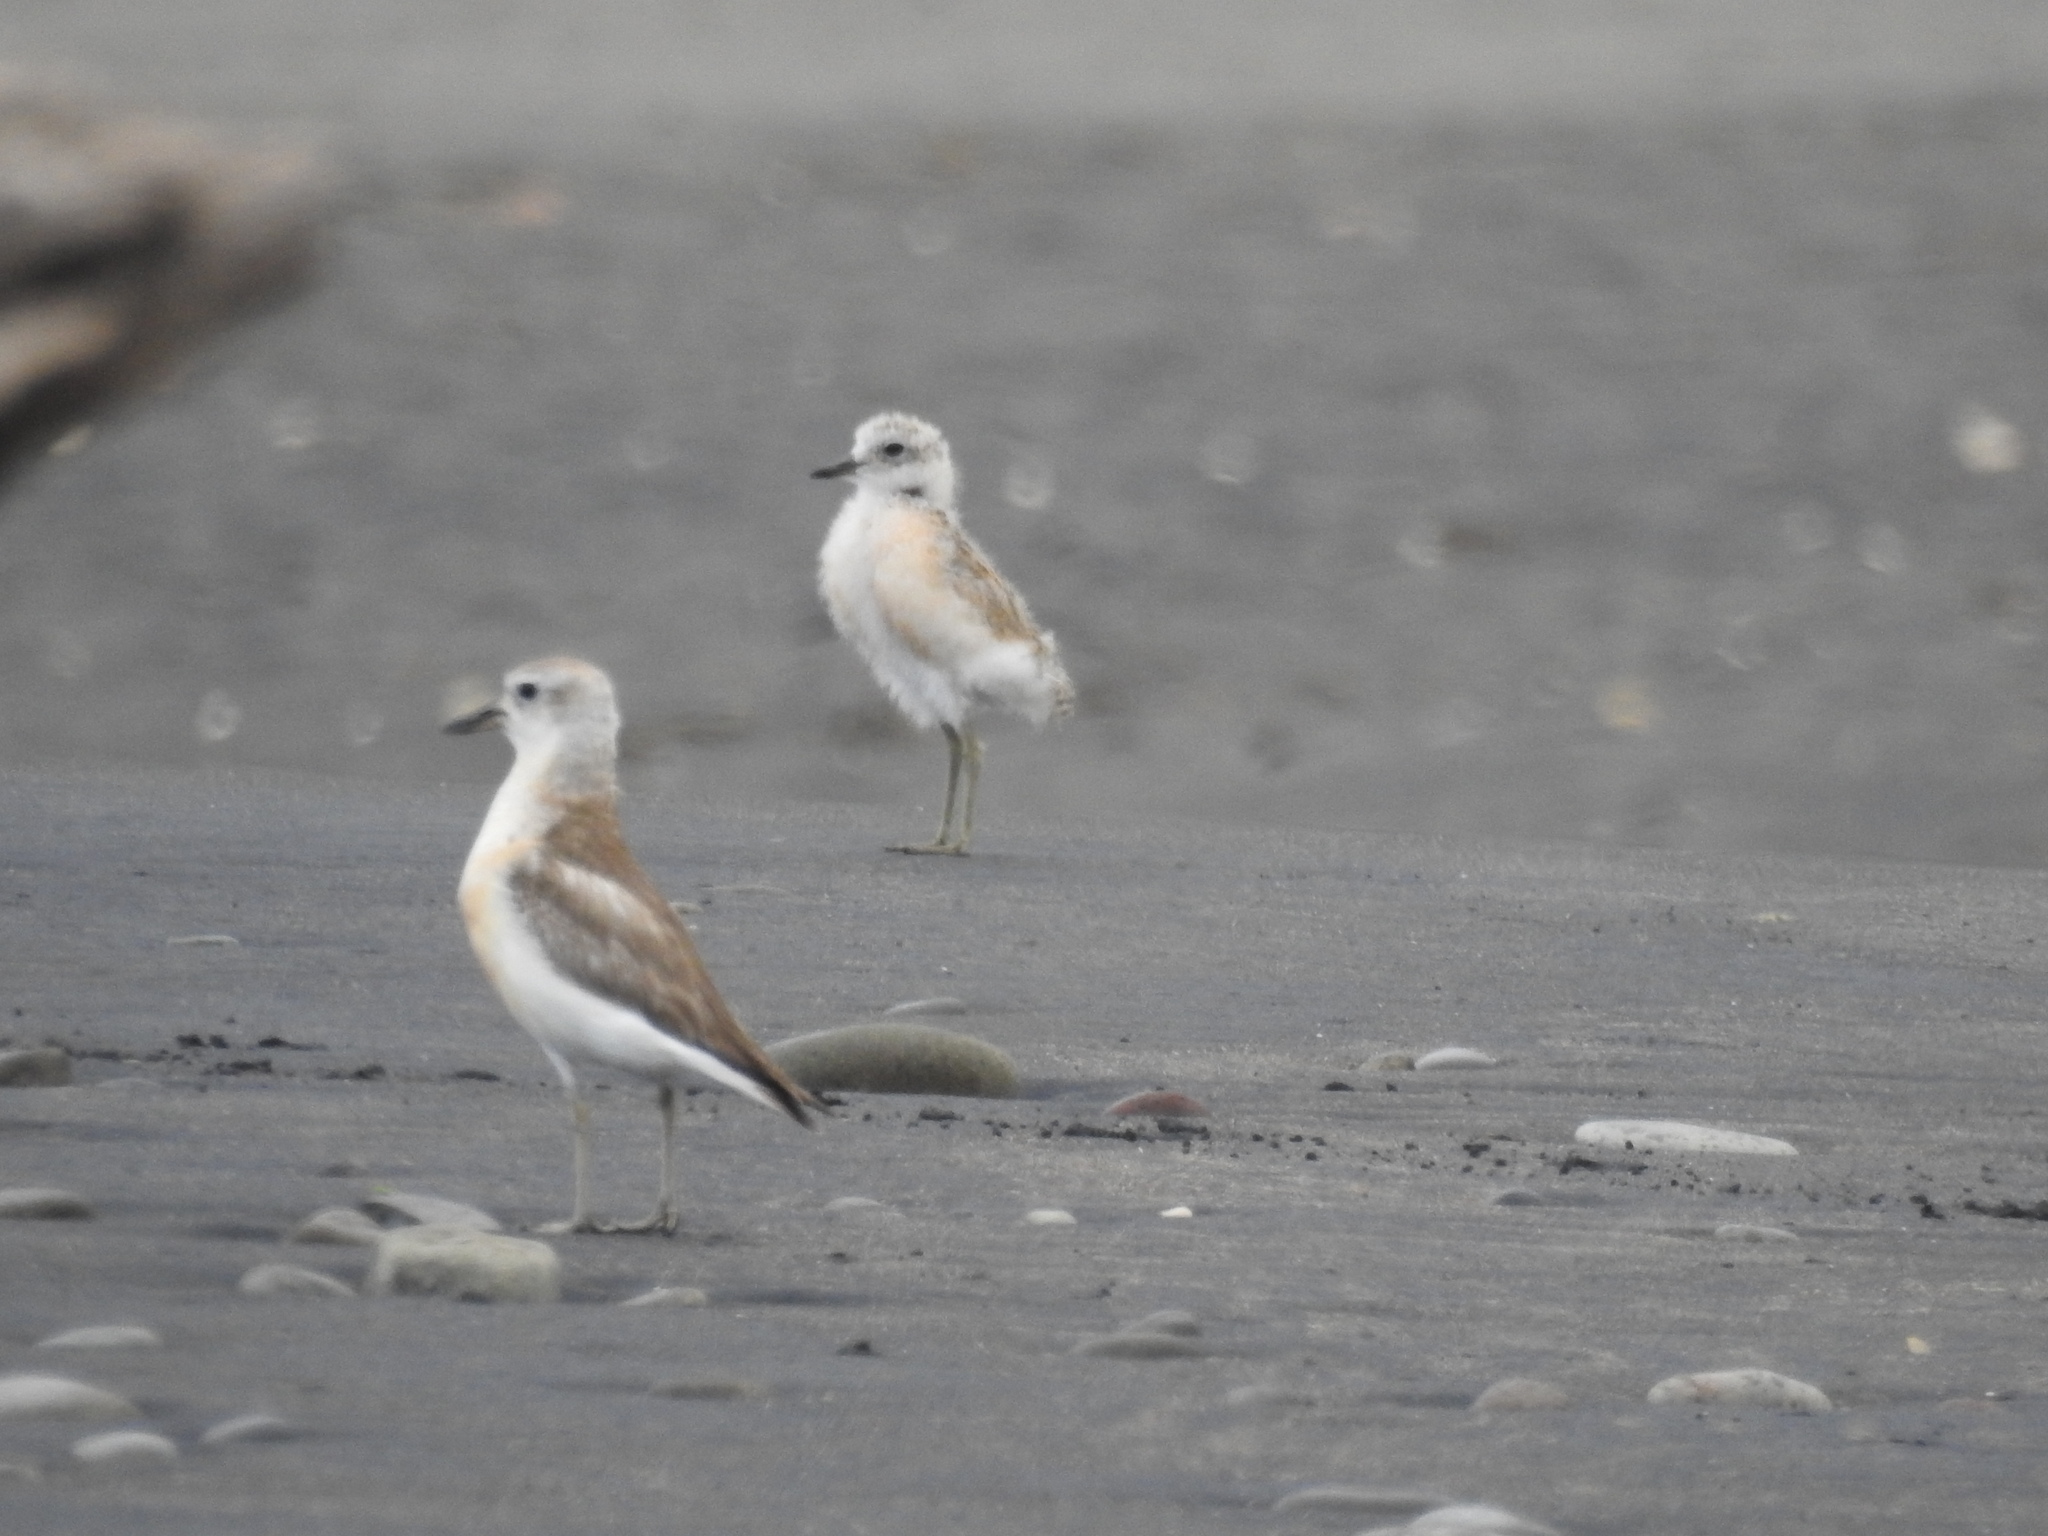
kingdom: Animalia
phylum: Chordata
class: Aves
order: Charadriiformes
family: Charadriidae
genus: Anarhynchus
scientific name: Anarhynchus
